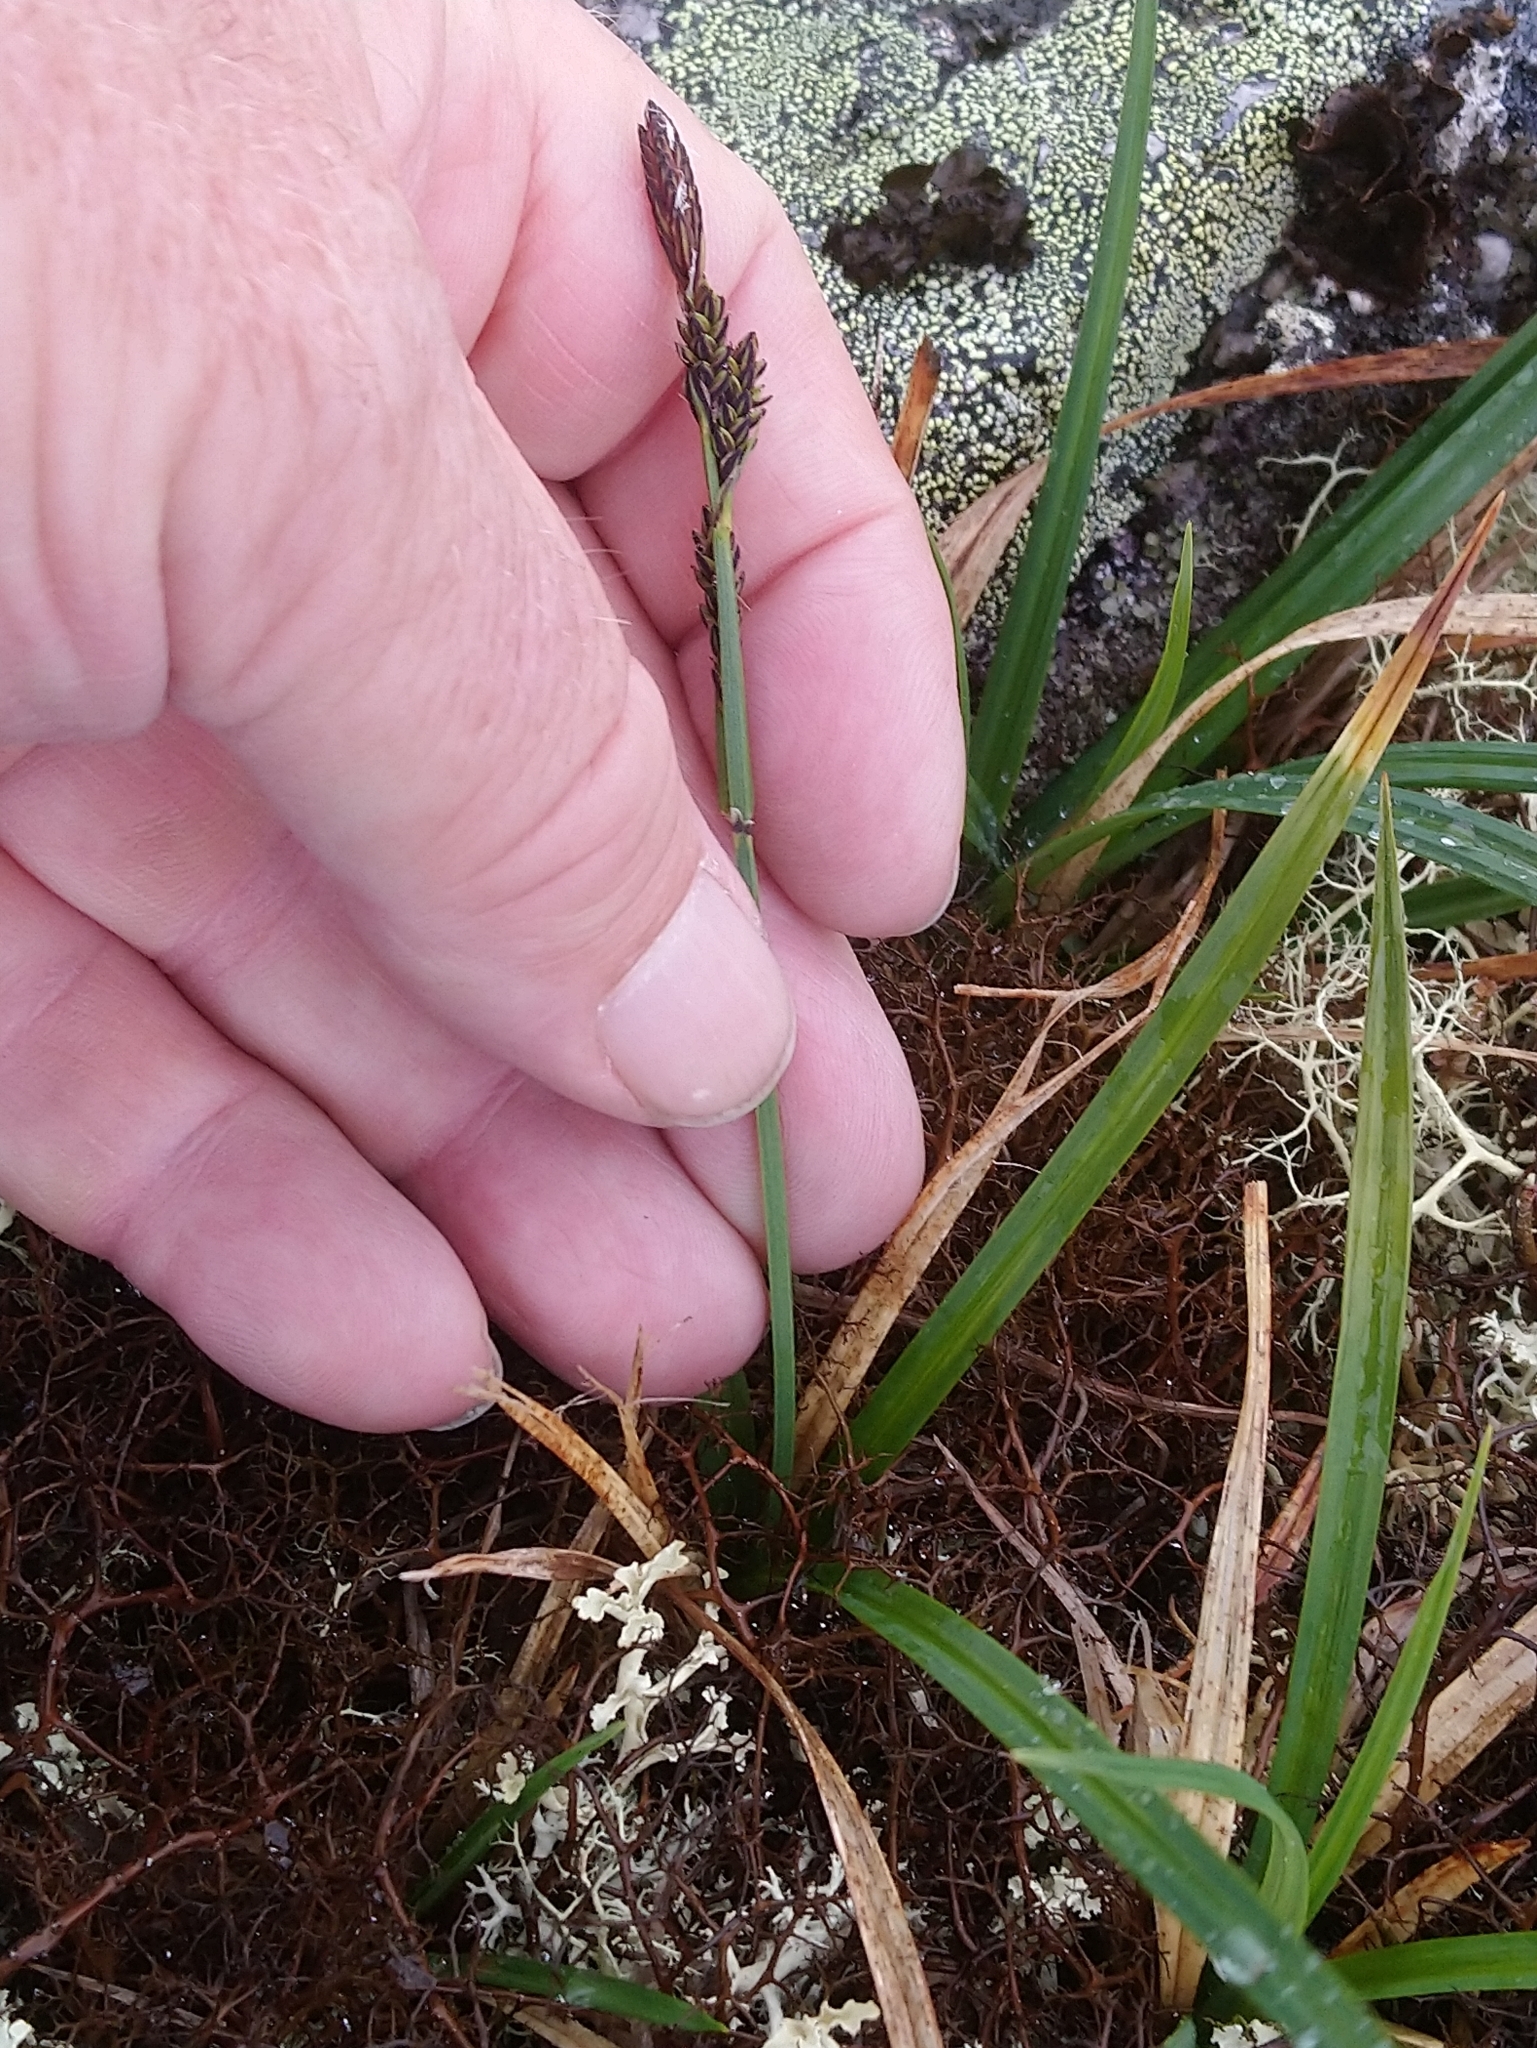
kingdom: Plantae
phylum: Tracheophyta
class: Liliopsida
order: Poales
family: Cyperaceae
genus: Carex
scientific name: Carex bigelowii
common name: Stiff sedge
